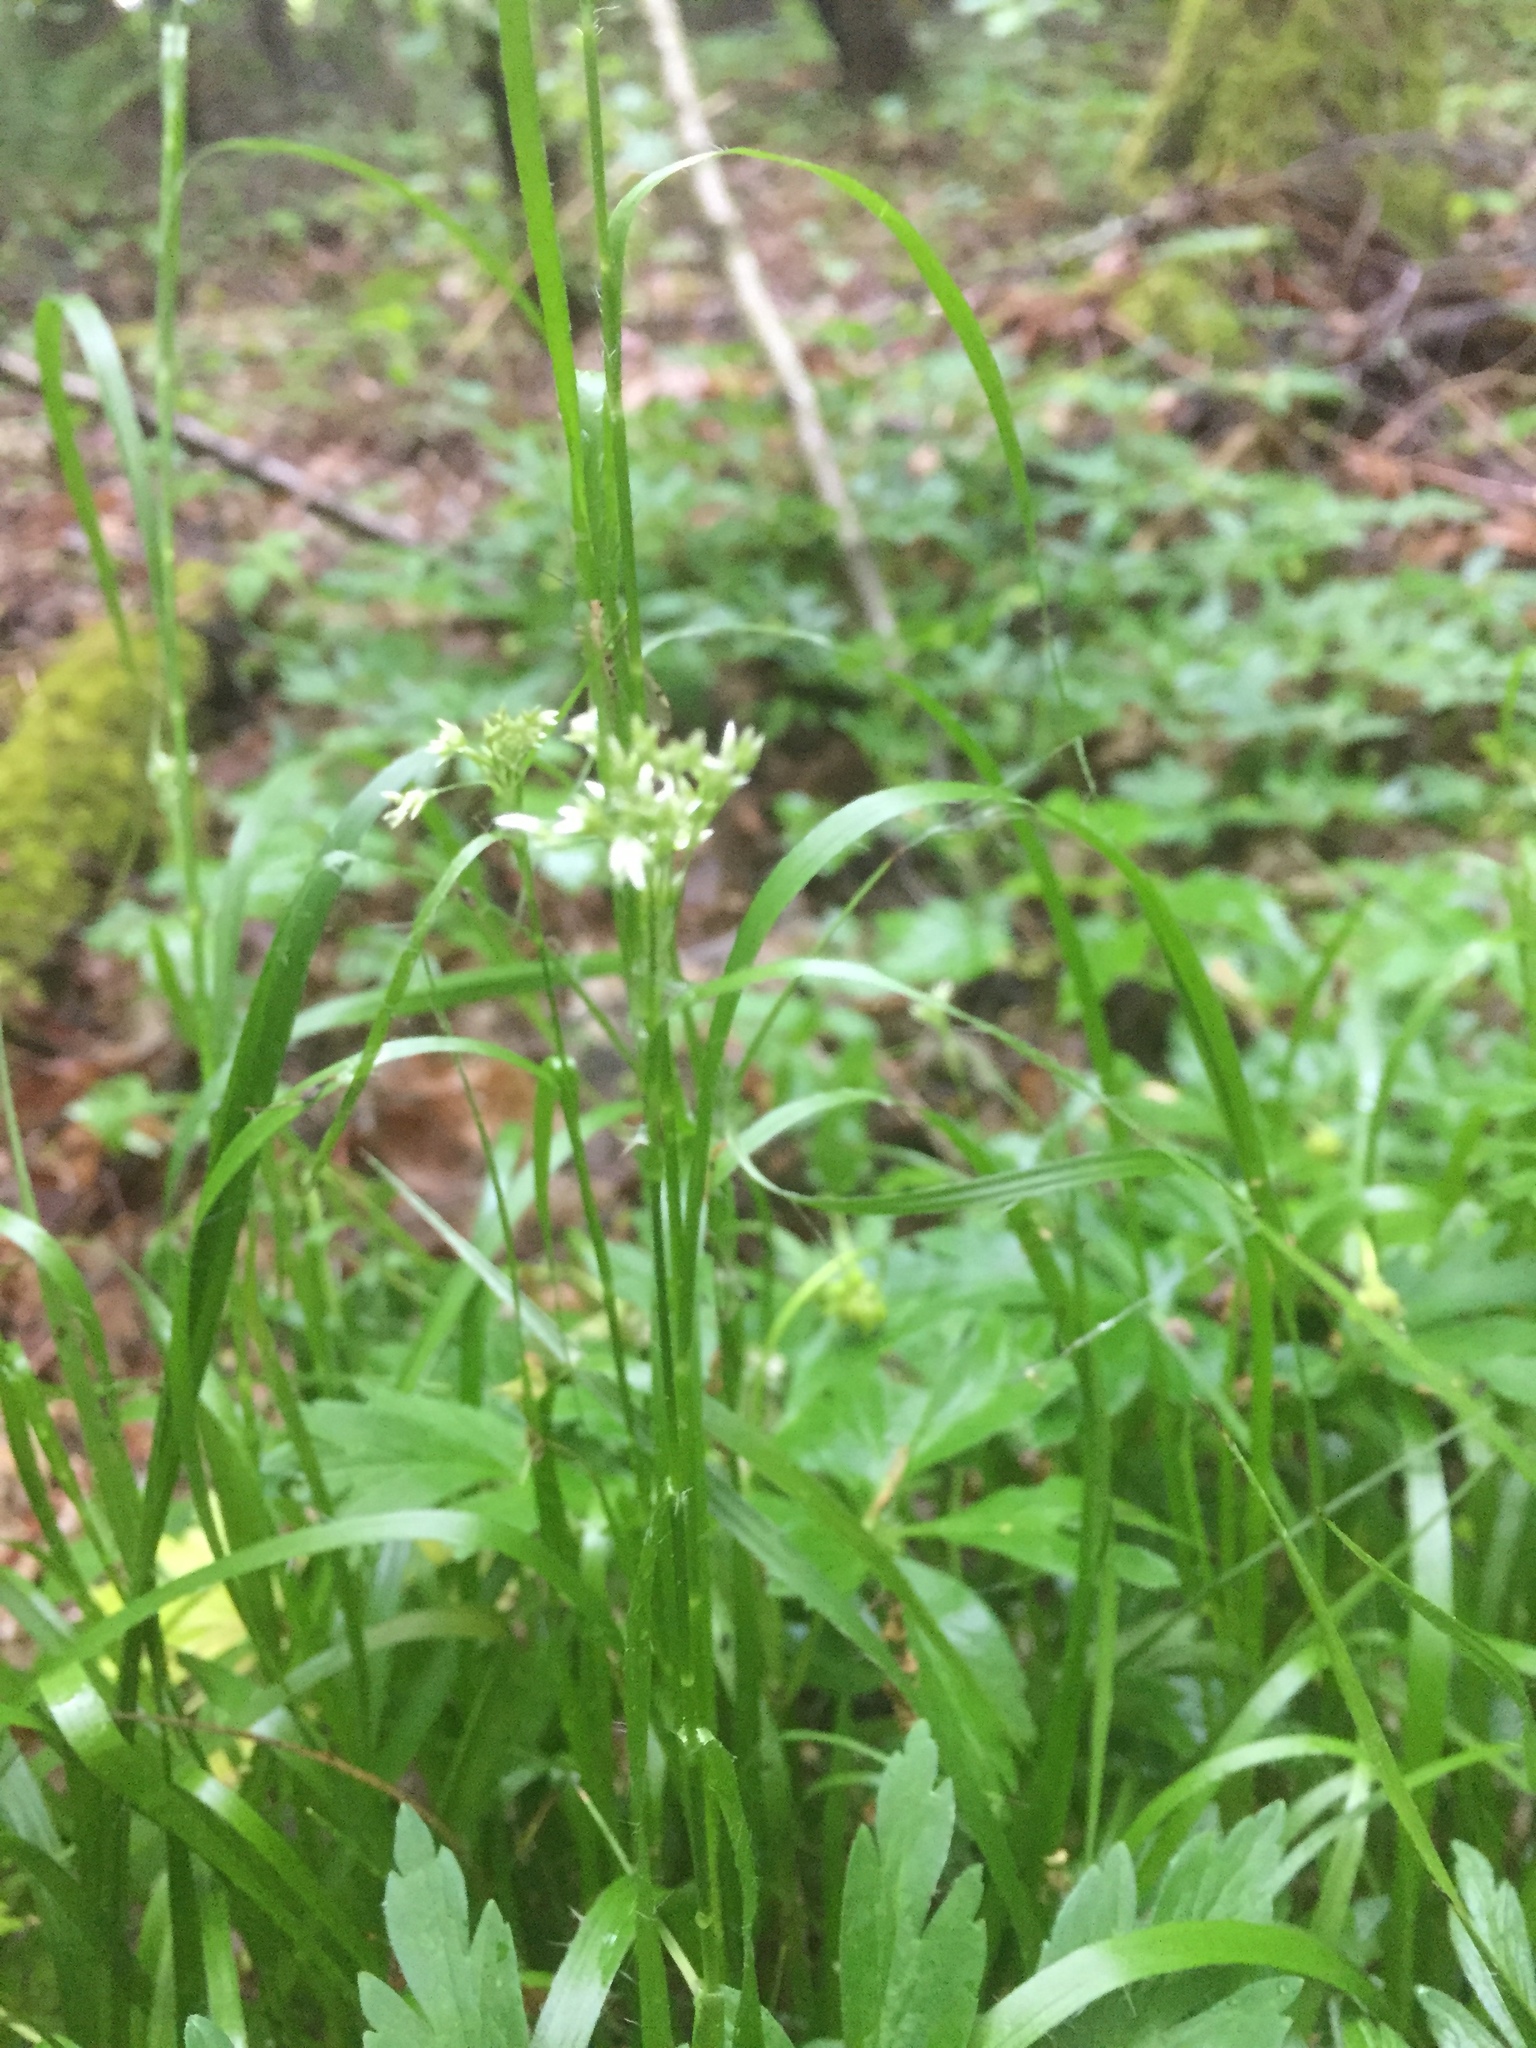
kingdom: Plantae
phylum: Tracheophyta
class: Liliopsida
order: Poales
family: Juncaceae
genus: Luzula
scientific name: Luzula luzuloides
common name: White wood-rush
